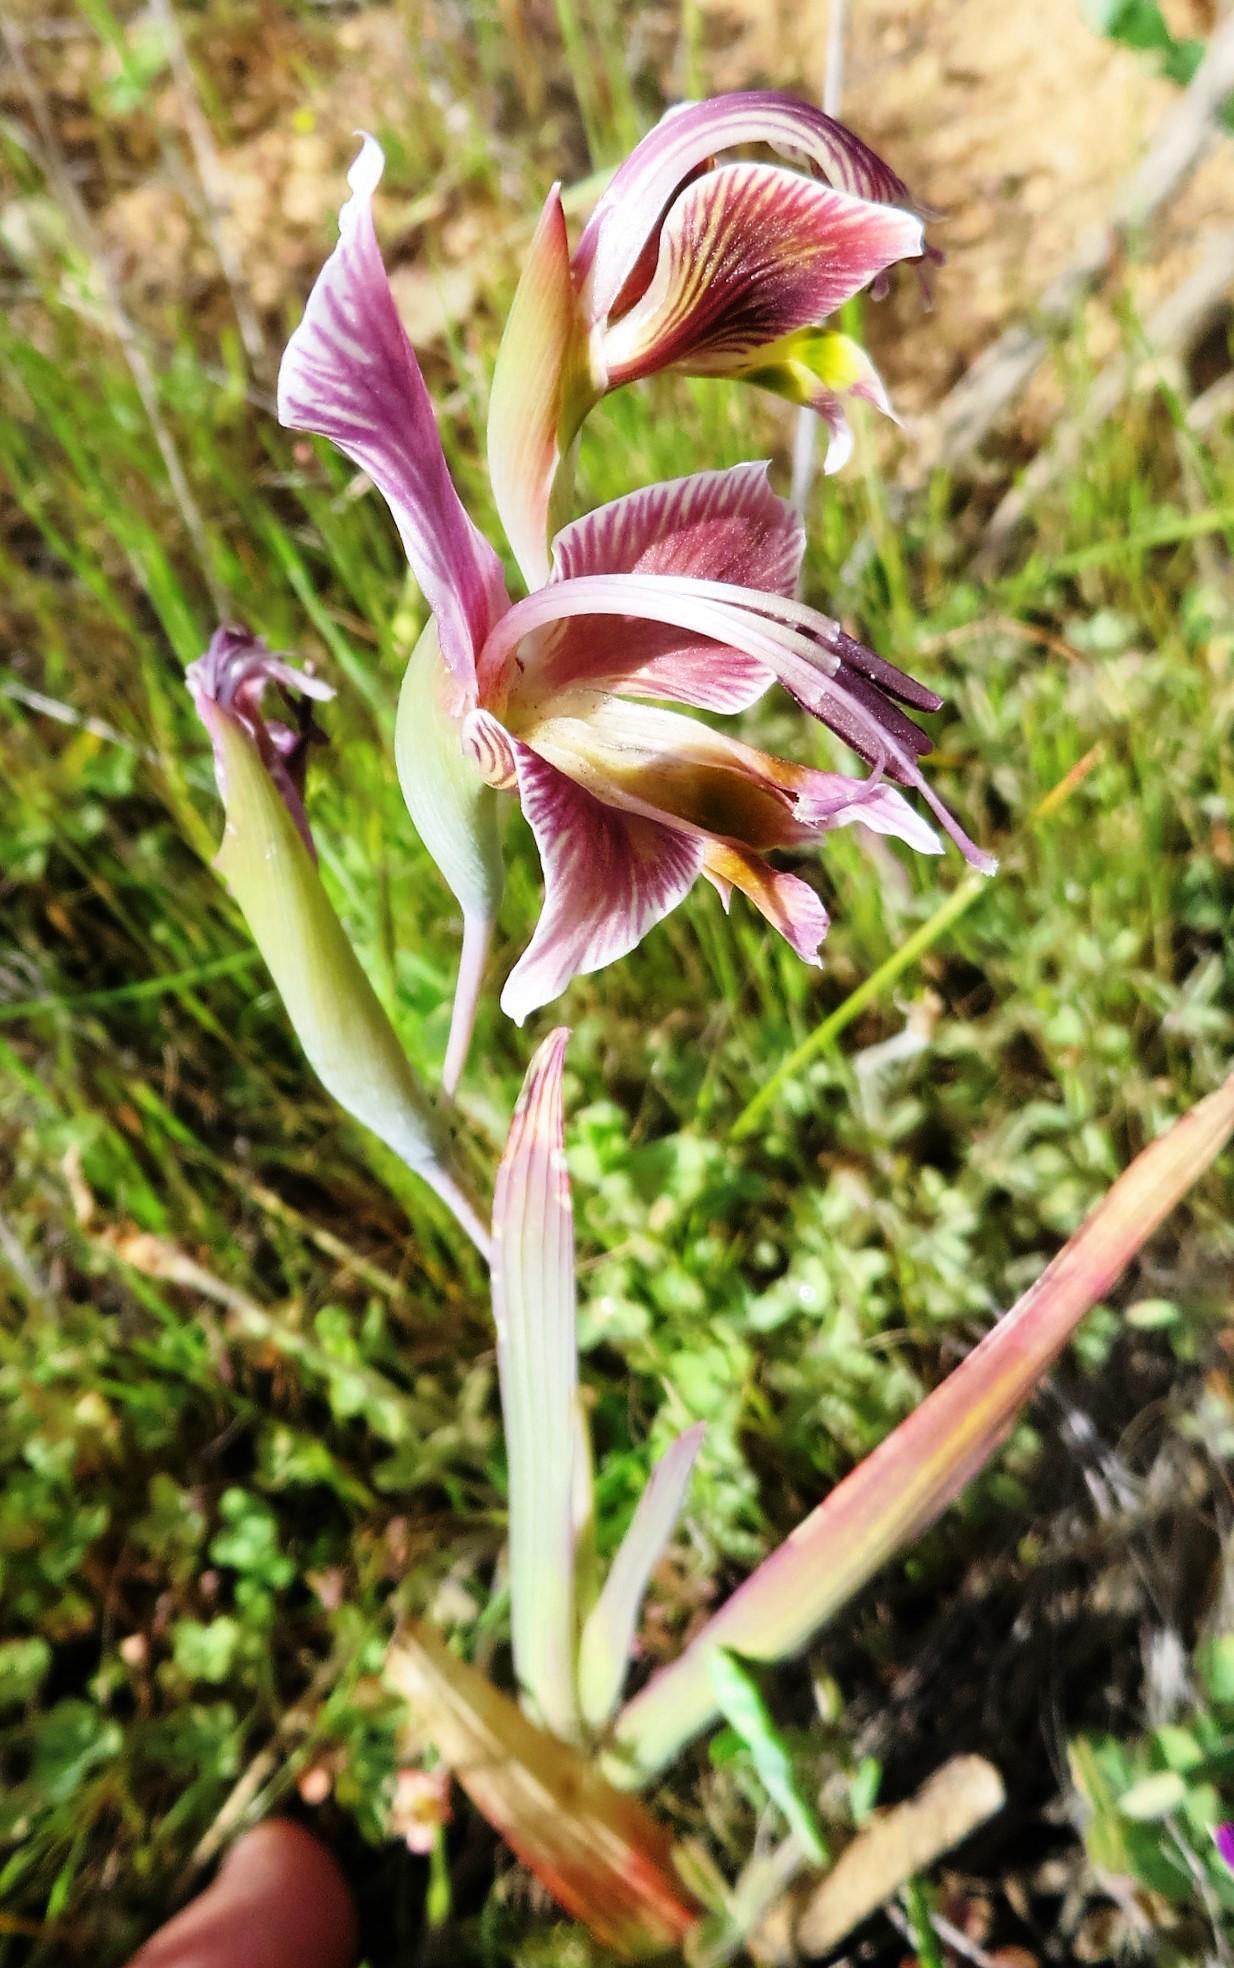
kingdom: Plantae
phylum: Tracheophyta
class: Liliopsida
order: Asparagales
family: Iridaceae
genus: Gladiolus
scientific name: Gladiolus uysiae
